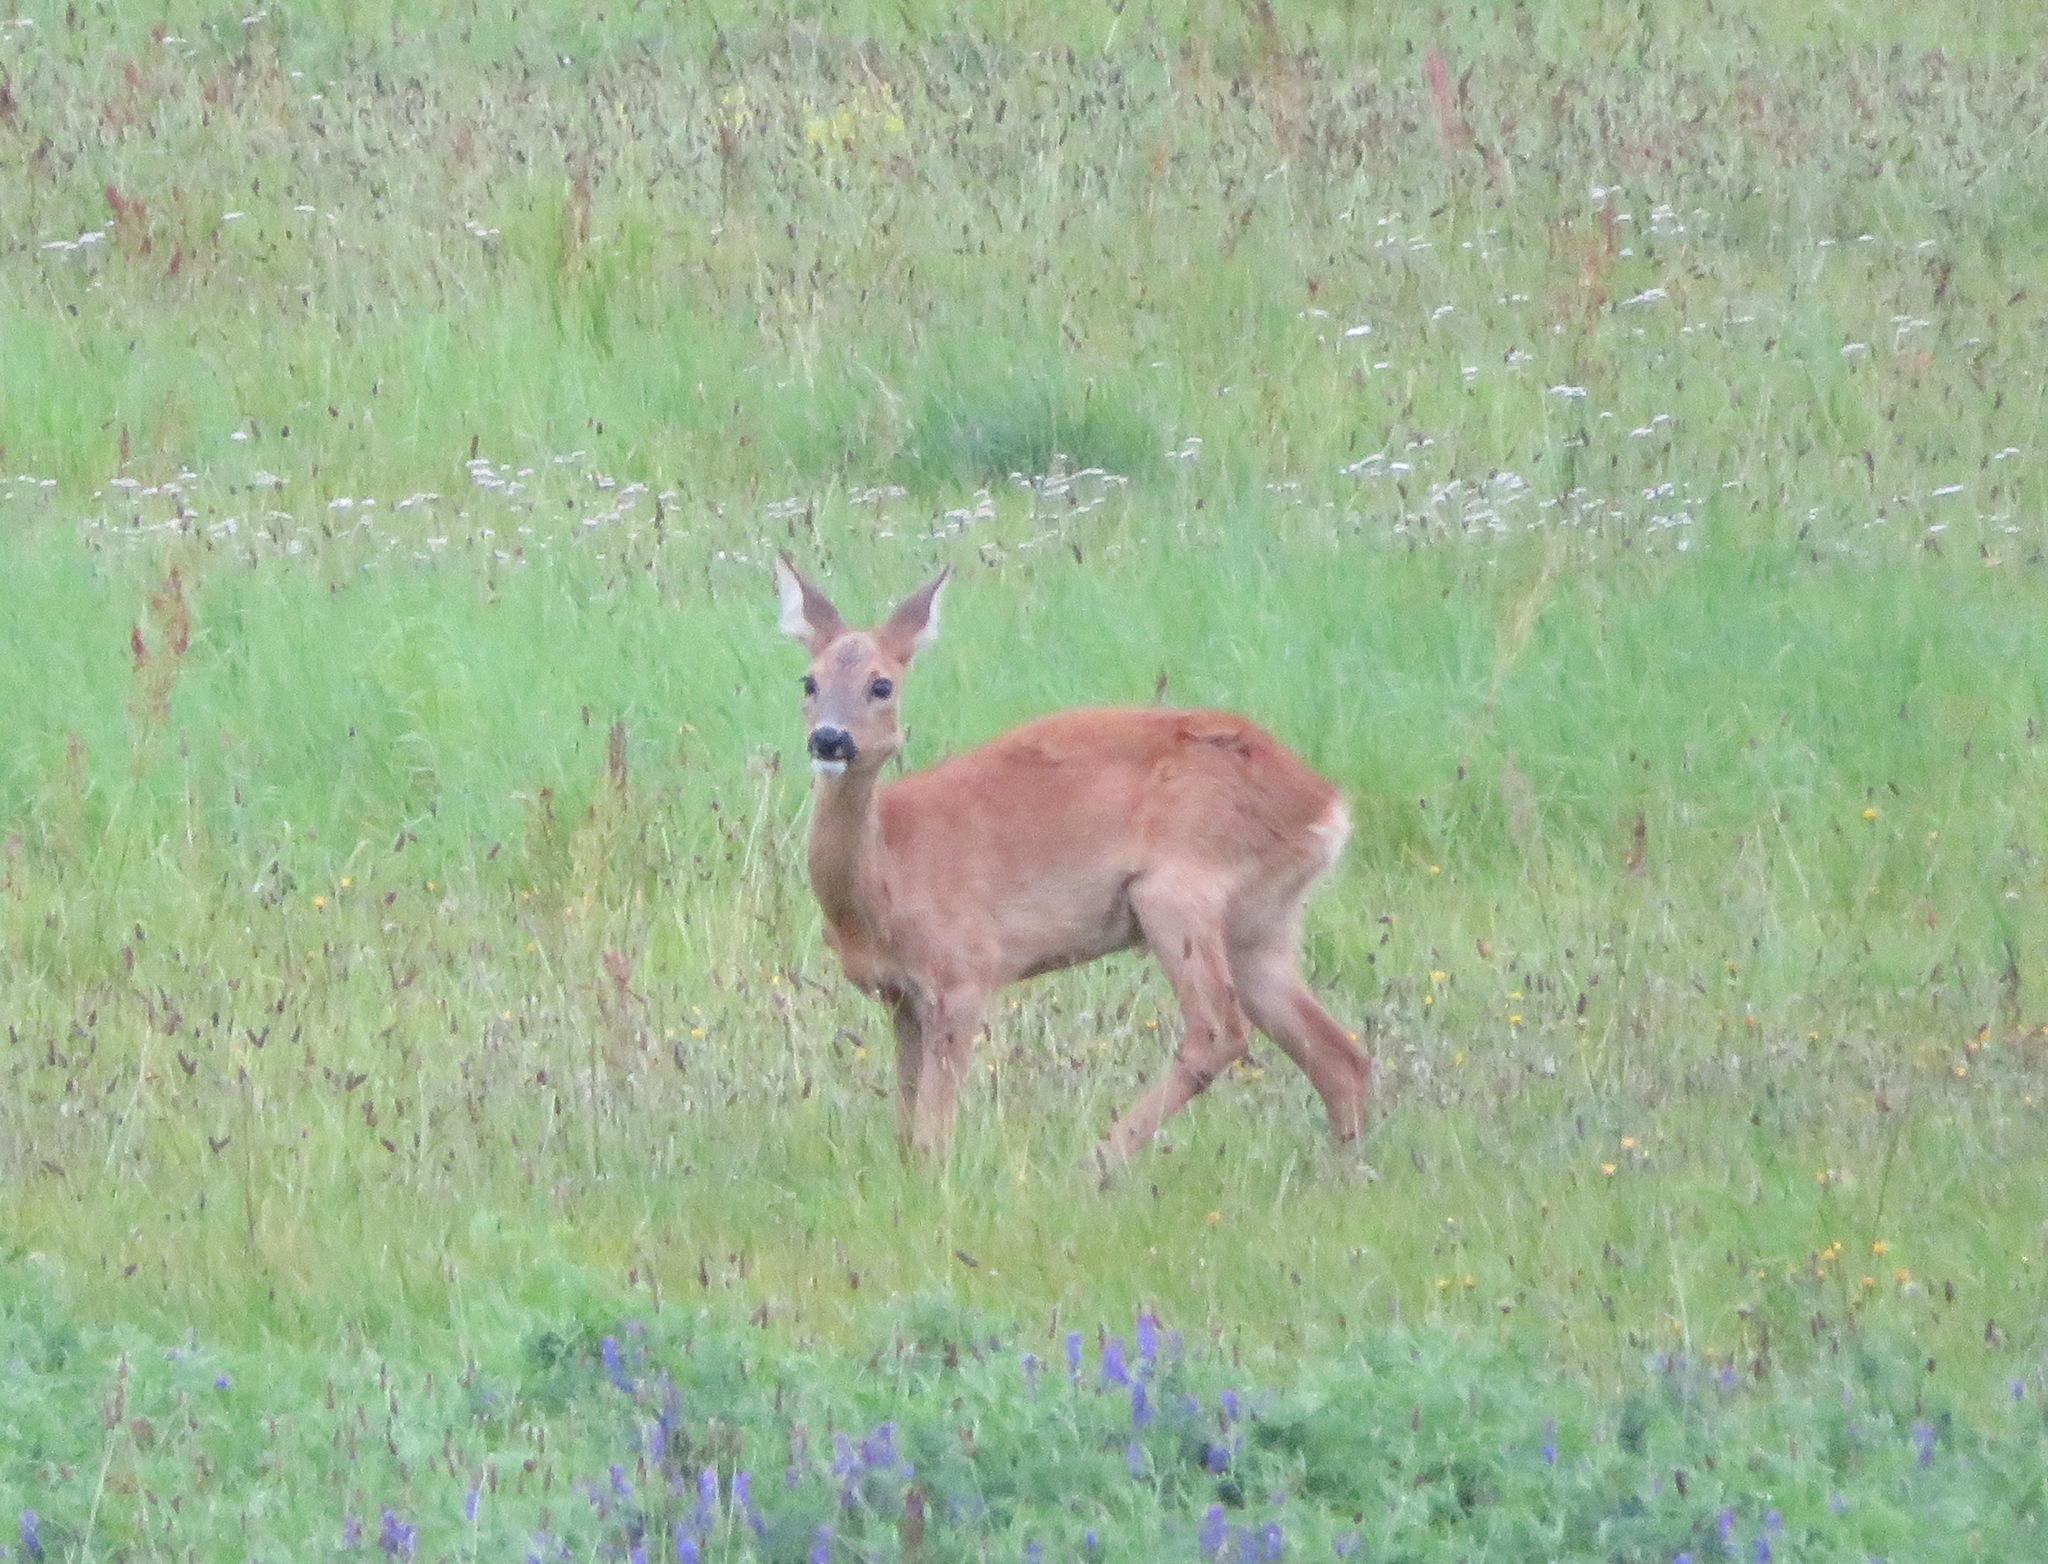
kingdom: Animalia
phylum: Chordata
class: Mammalia
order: Artiodactyla
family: Cervidae
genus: Capreolus
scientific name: Capreolus capreolus
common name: Western roe deer
